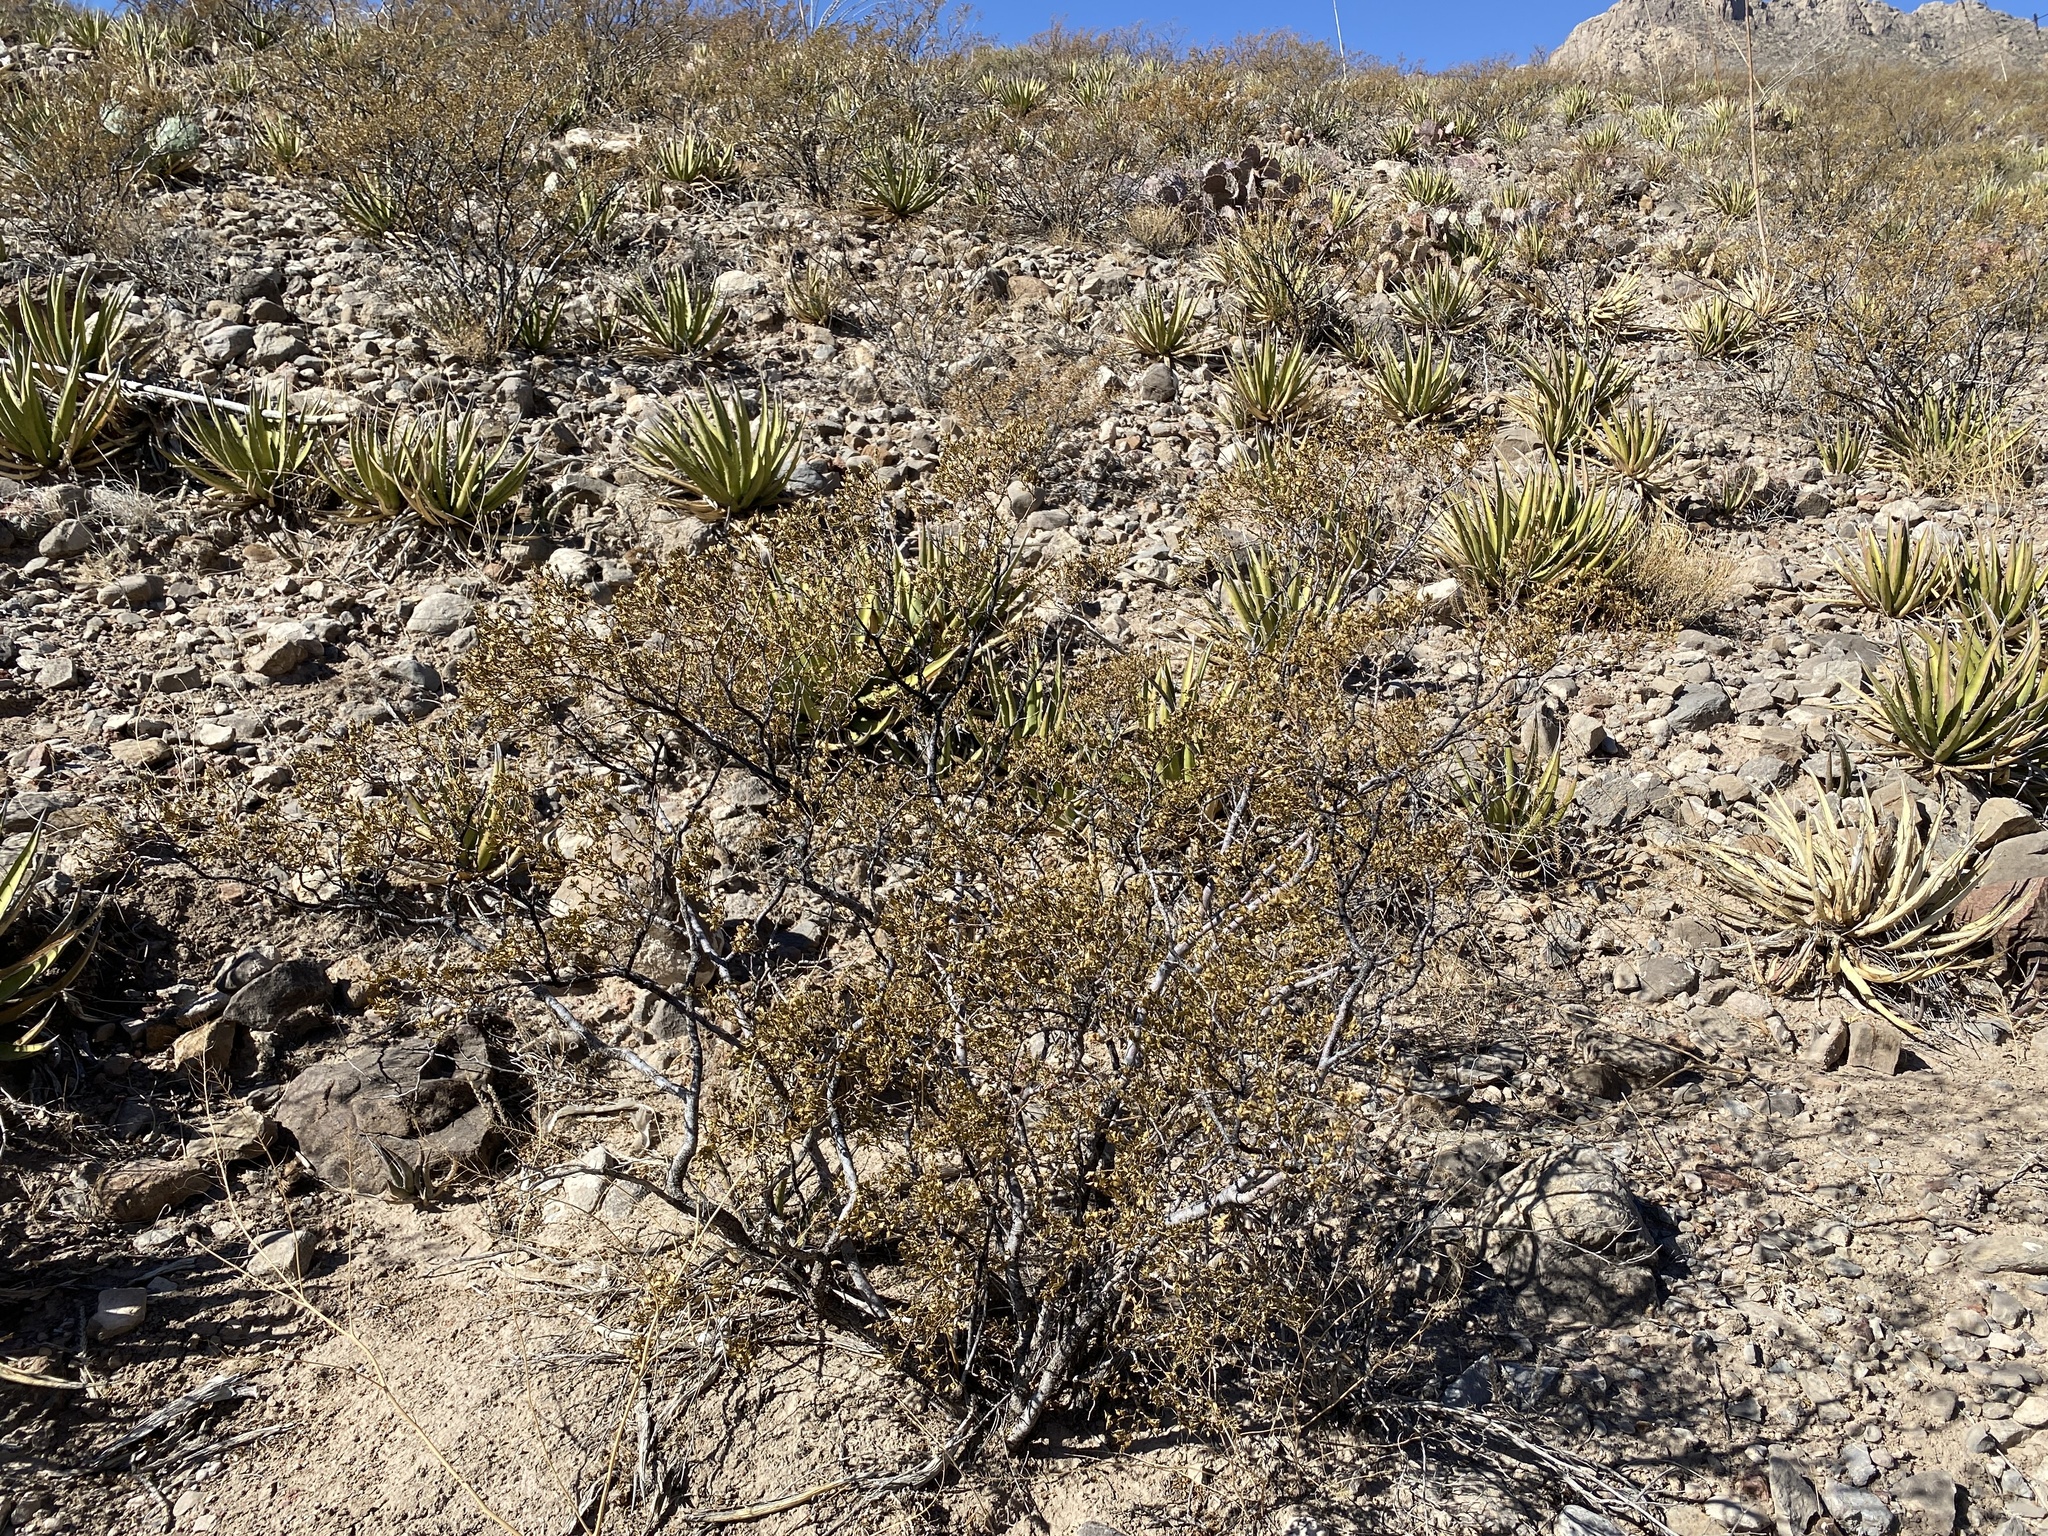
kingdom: Plantae
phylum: Tracheophyta
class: Magnoliopsida
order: Zygophyllales
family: Zygophyllaceae
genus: Larrea
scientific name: Larrea tridentata
